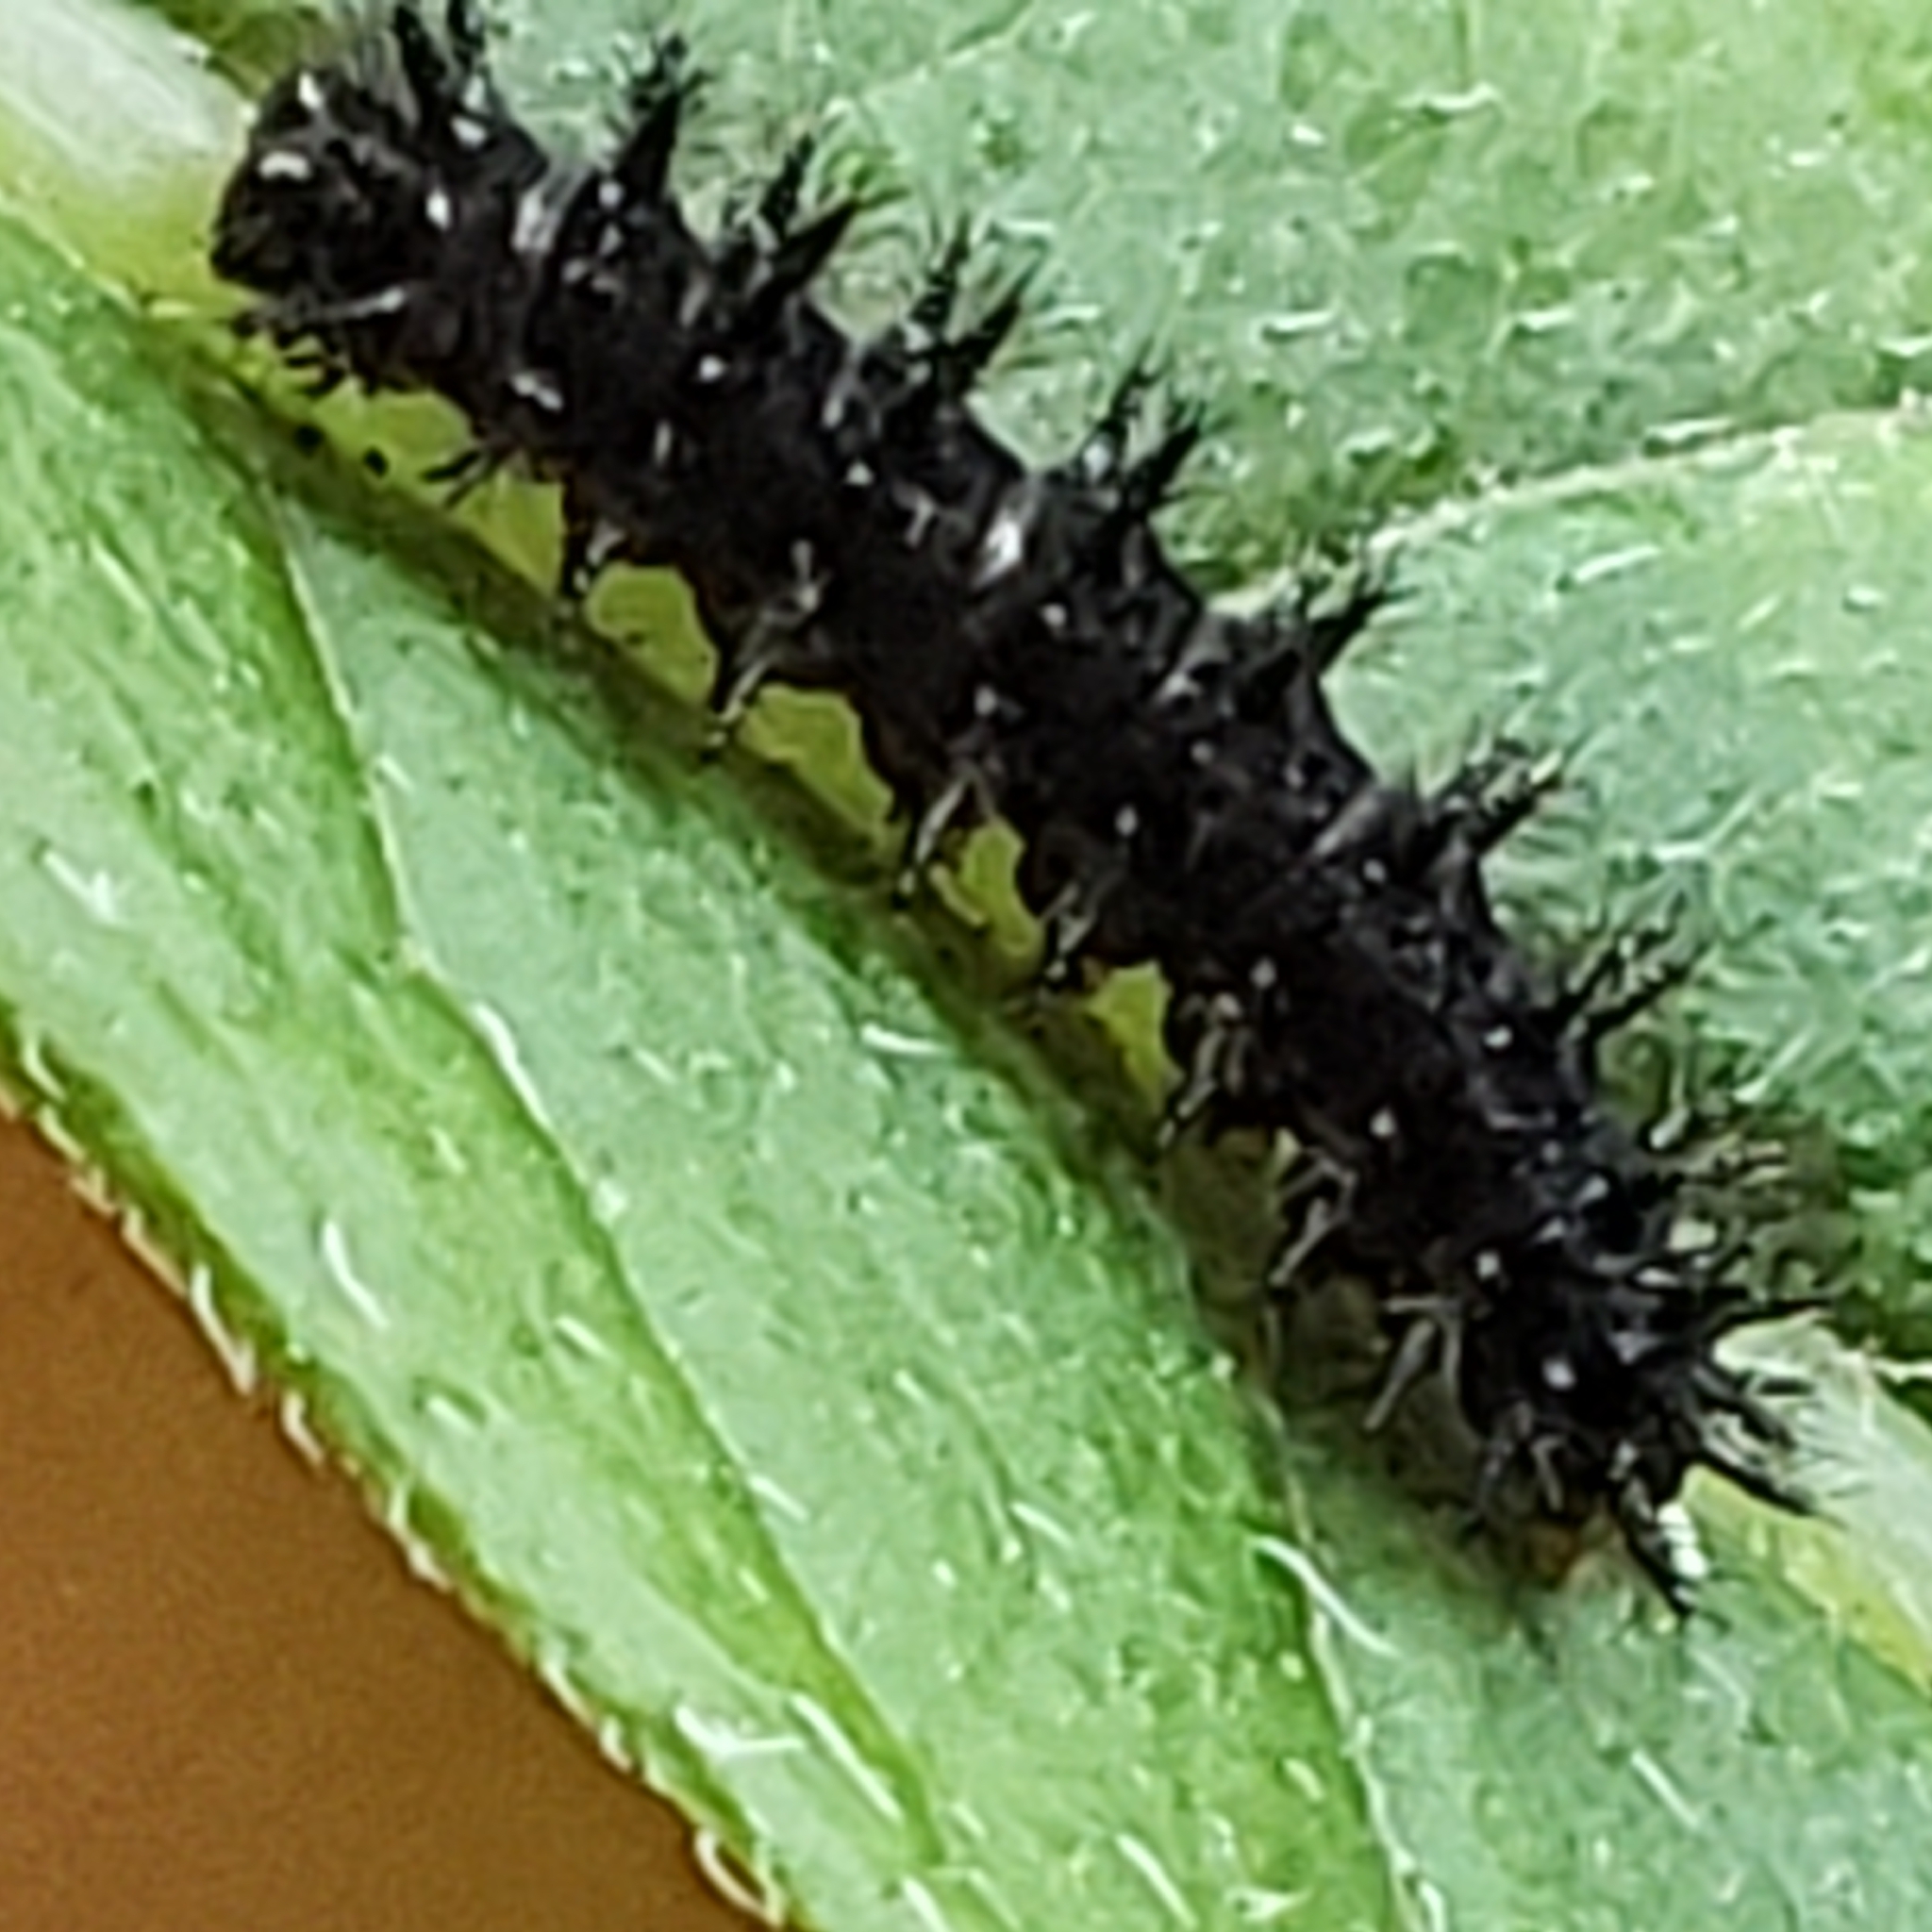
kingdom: Animalia
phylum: Arthropoda
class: Insecta
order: Lepidoptera
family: Nymphalidae
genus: Chlosyne
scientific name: Chlosyne nycteis
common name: Silvery checkerspot
